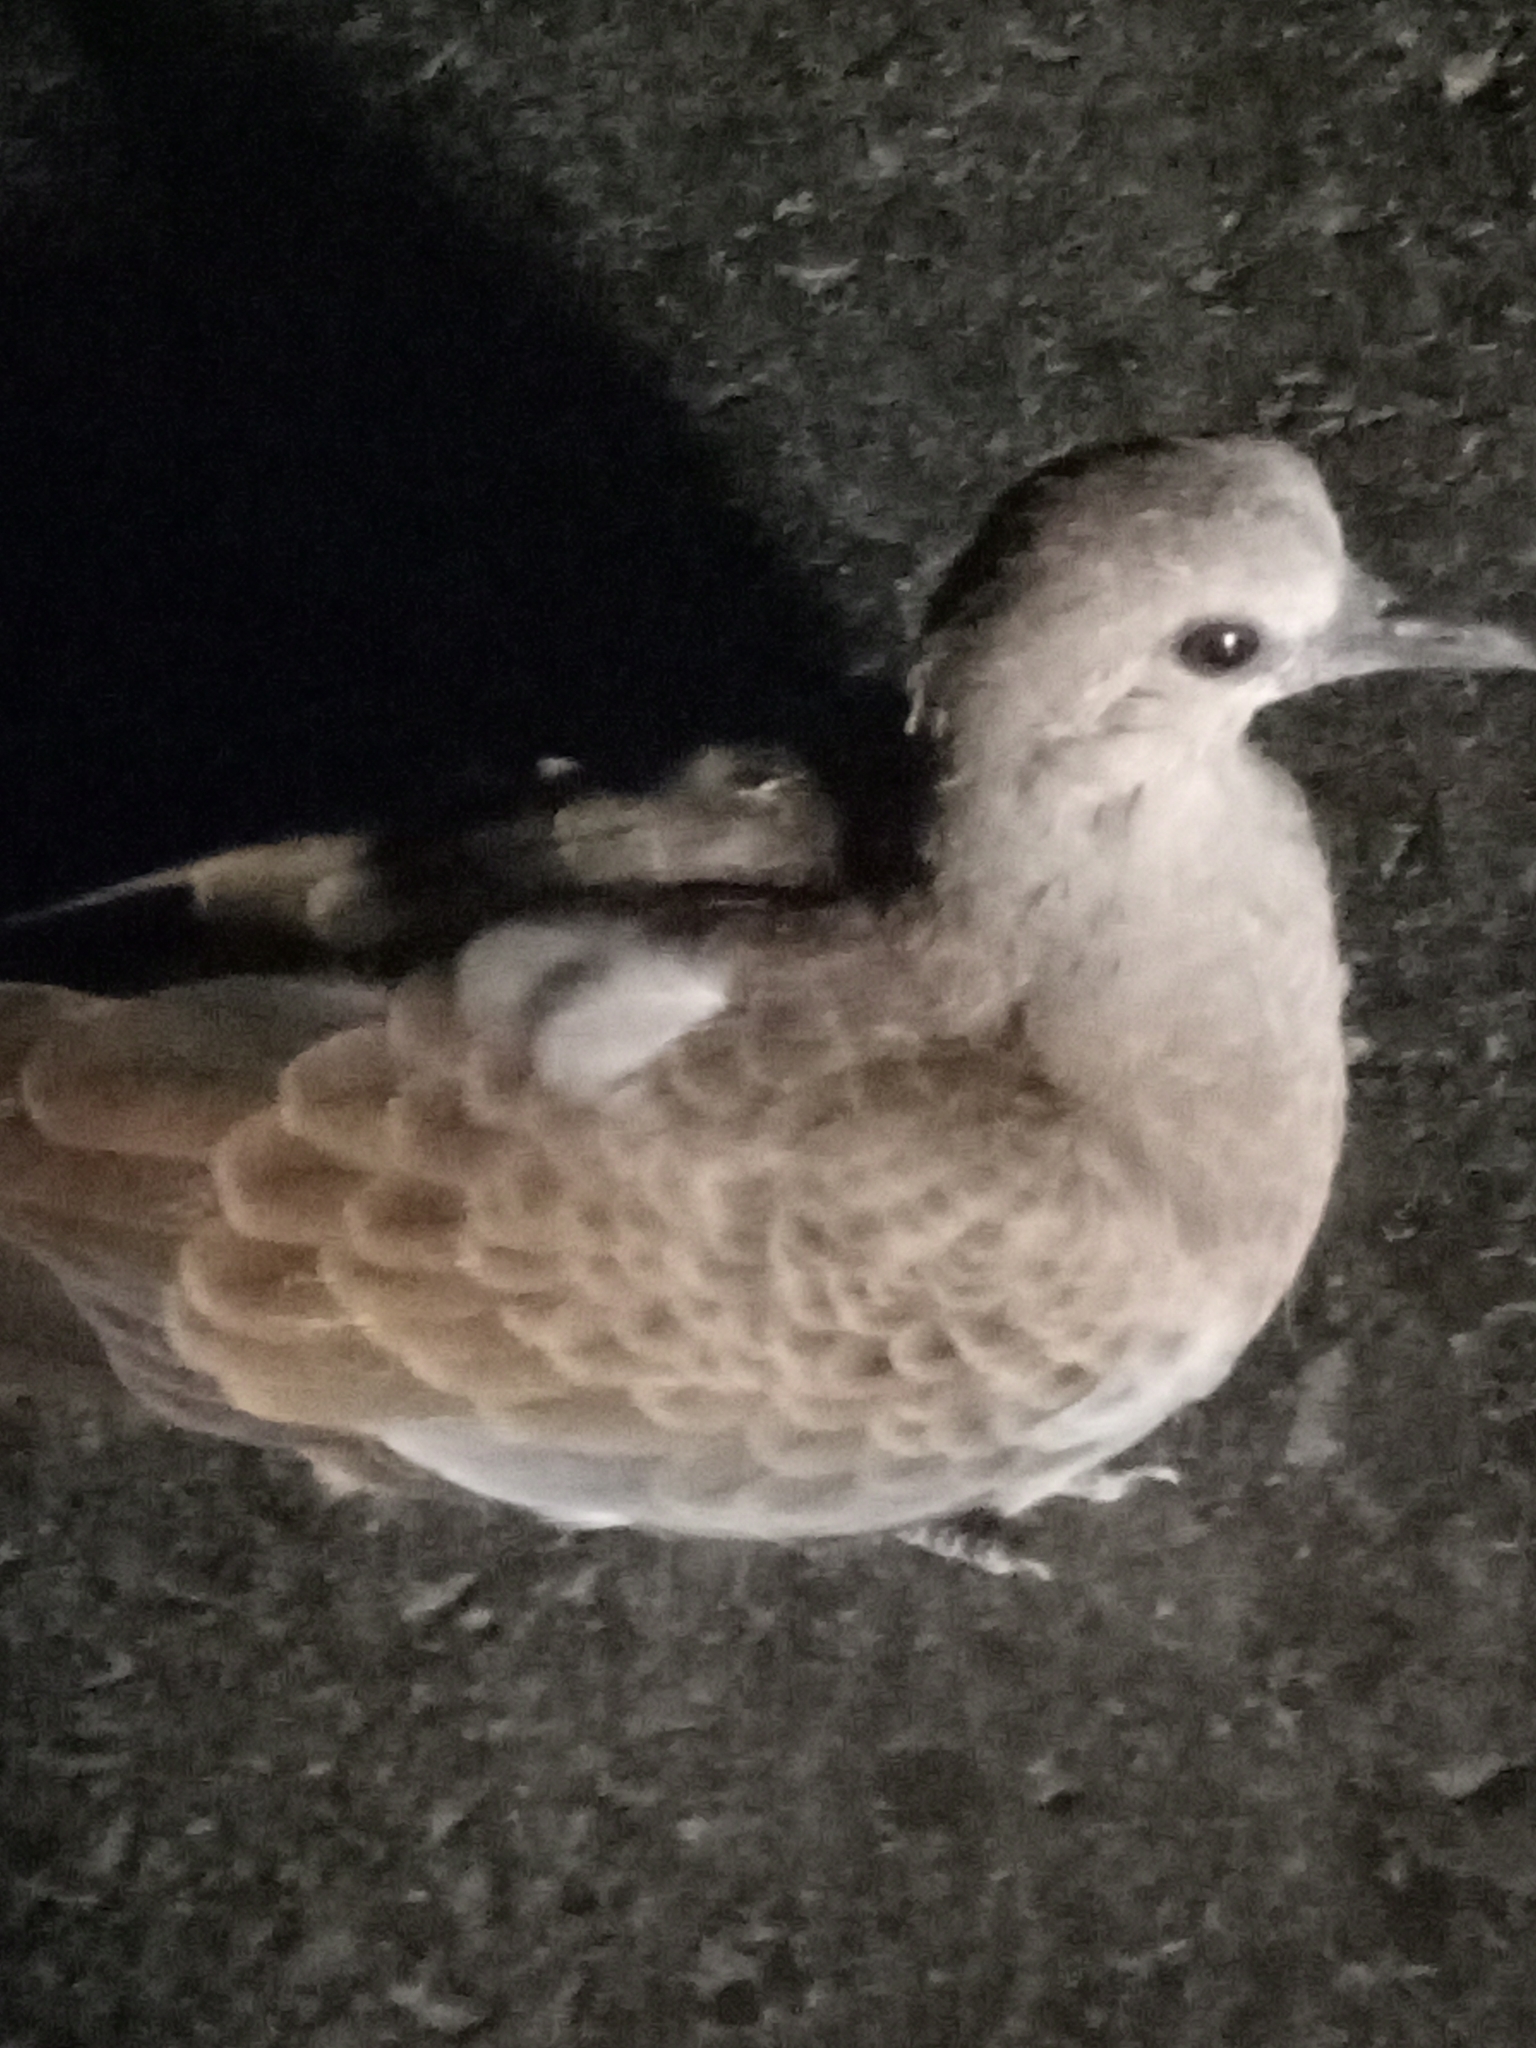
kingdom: Animalia
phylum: Chordata
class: Aves
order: Columbiformes
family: Columbidae
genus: Streptopelia
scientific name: Streptopelia turtur
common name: European turtle dove
